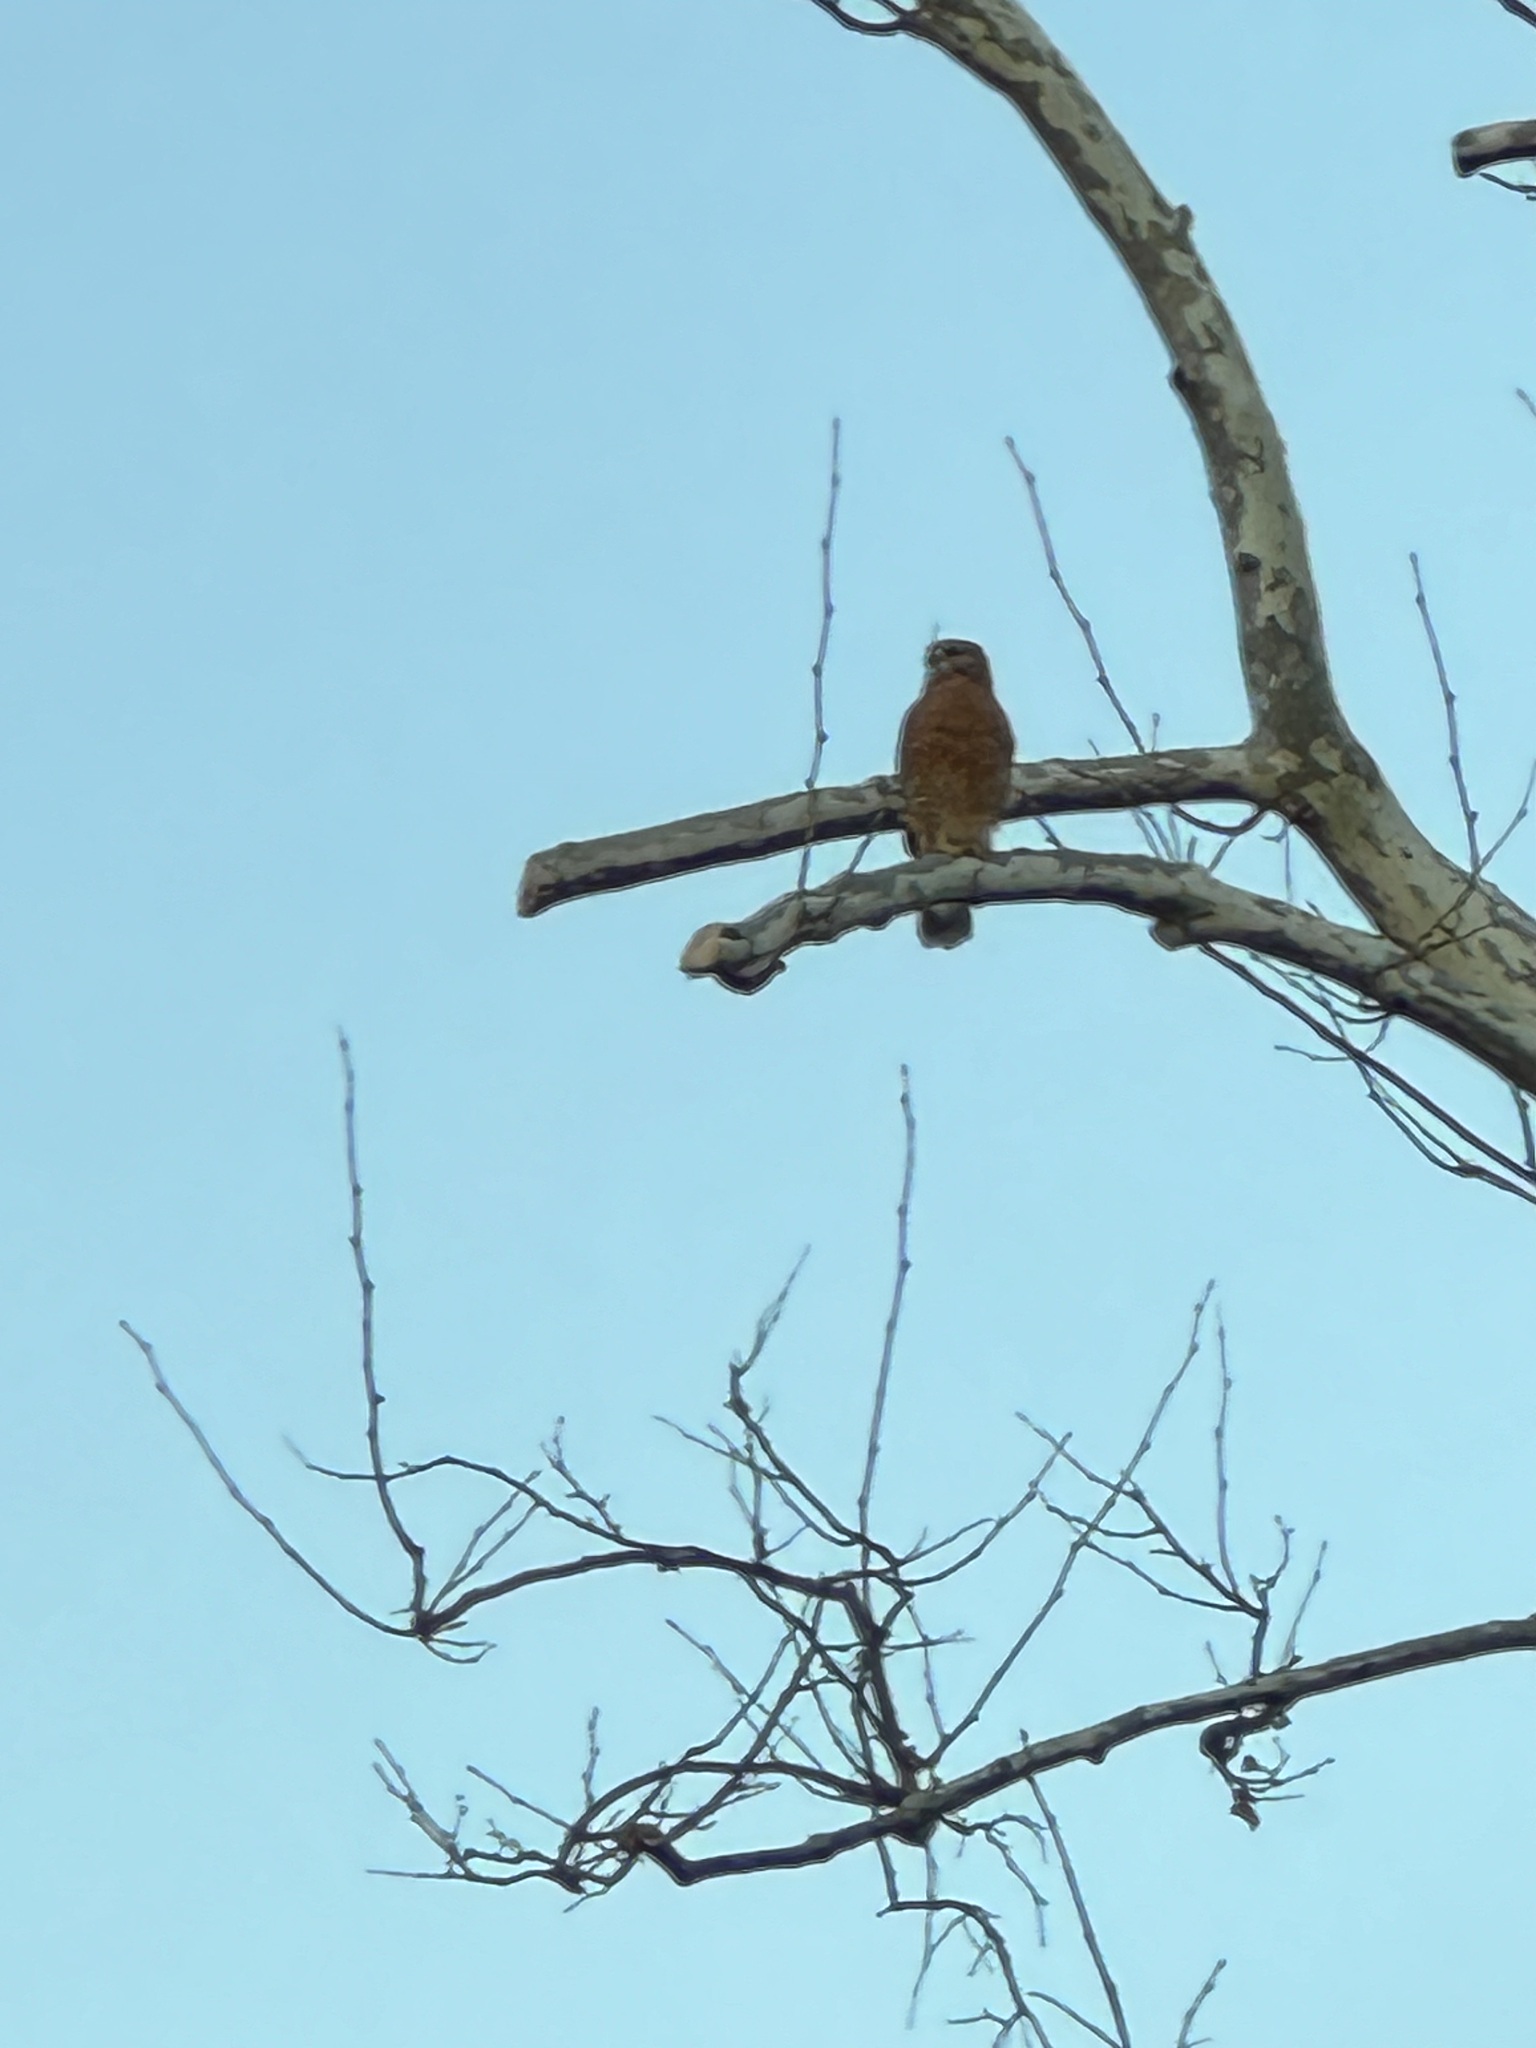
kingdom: Animalia
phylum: Chordata
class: Aves
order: Accipitriformes
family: Accipitridae
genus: Buteo
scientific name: Buteo lineatus
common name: Red-shouldered hawk
